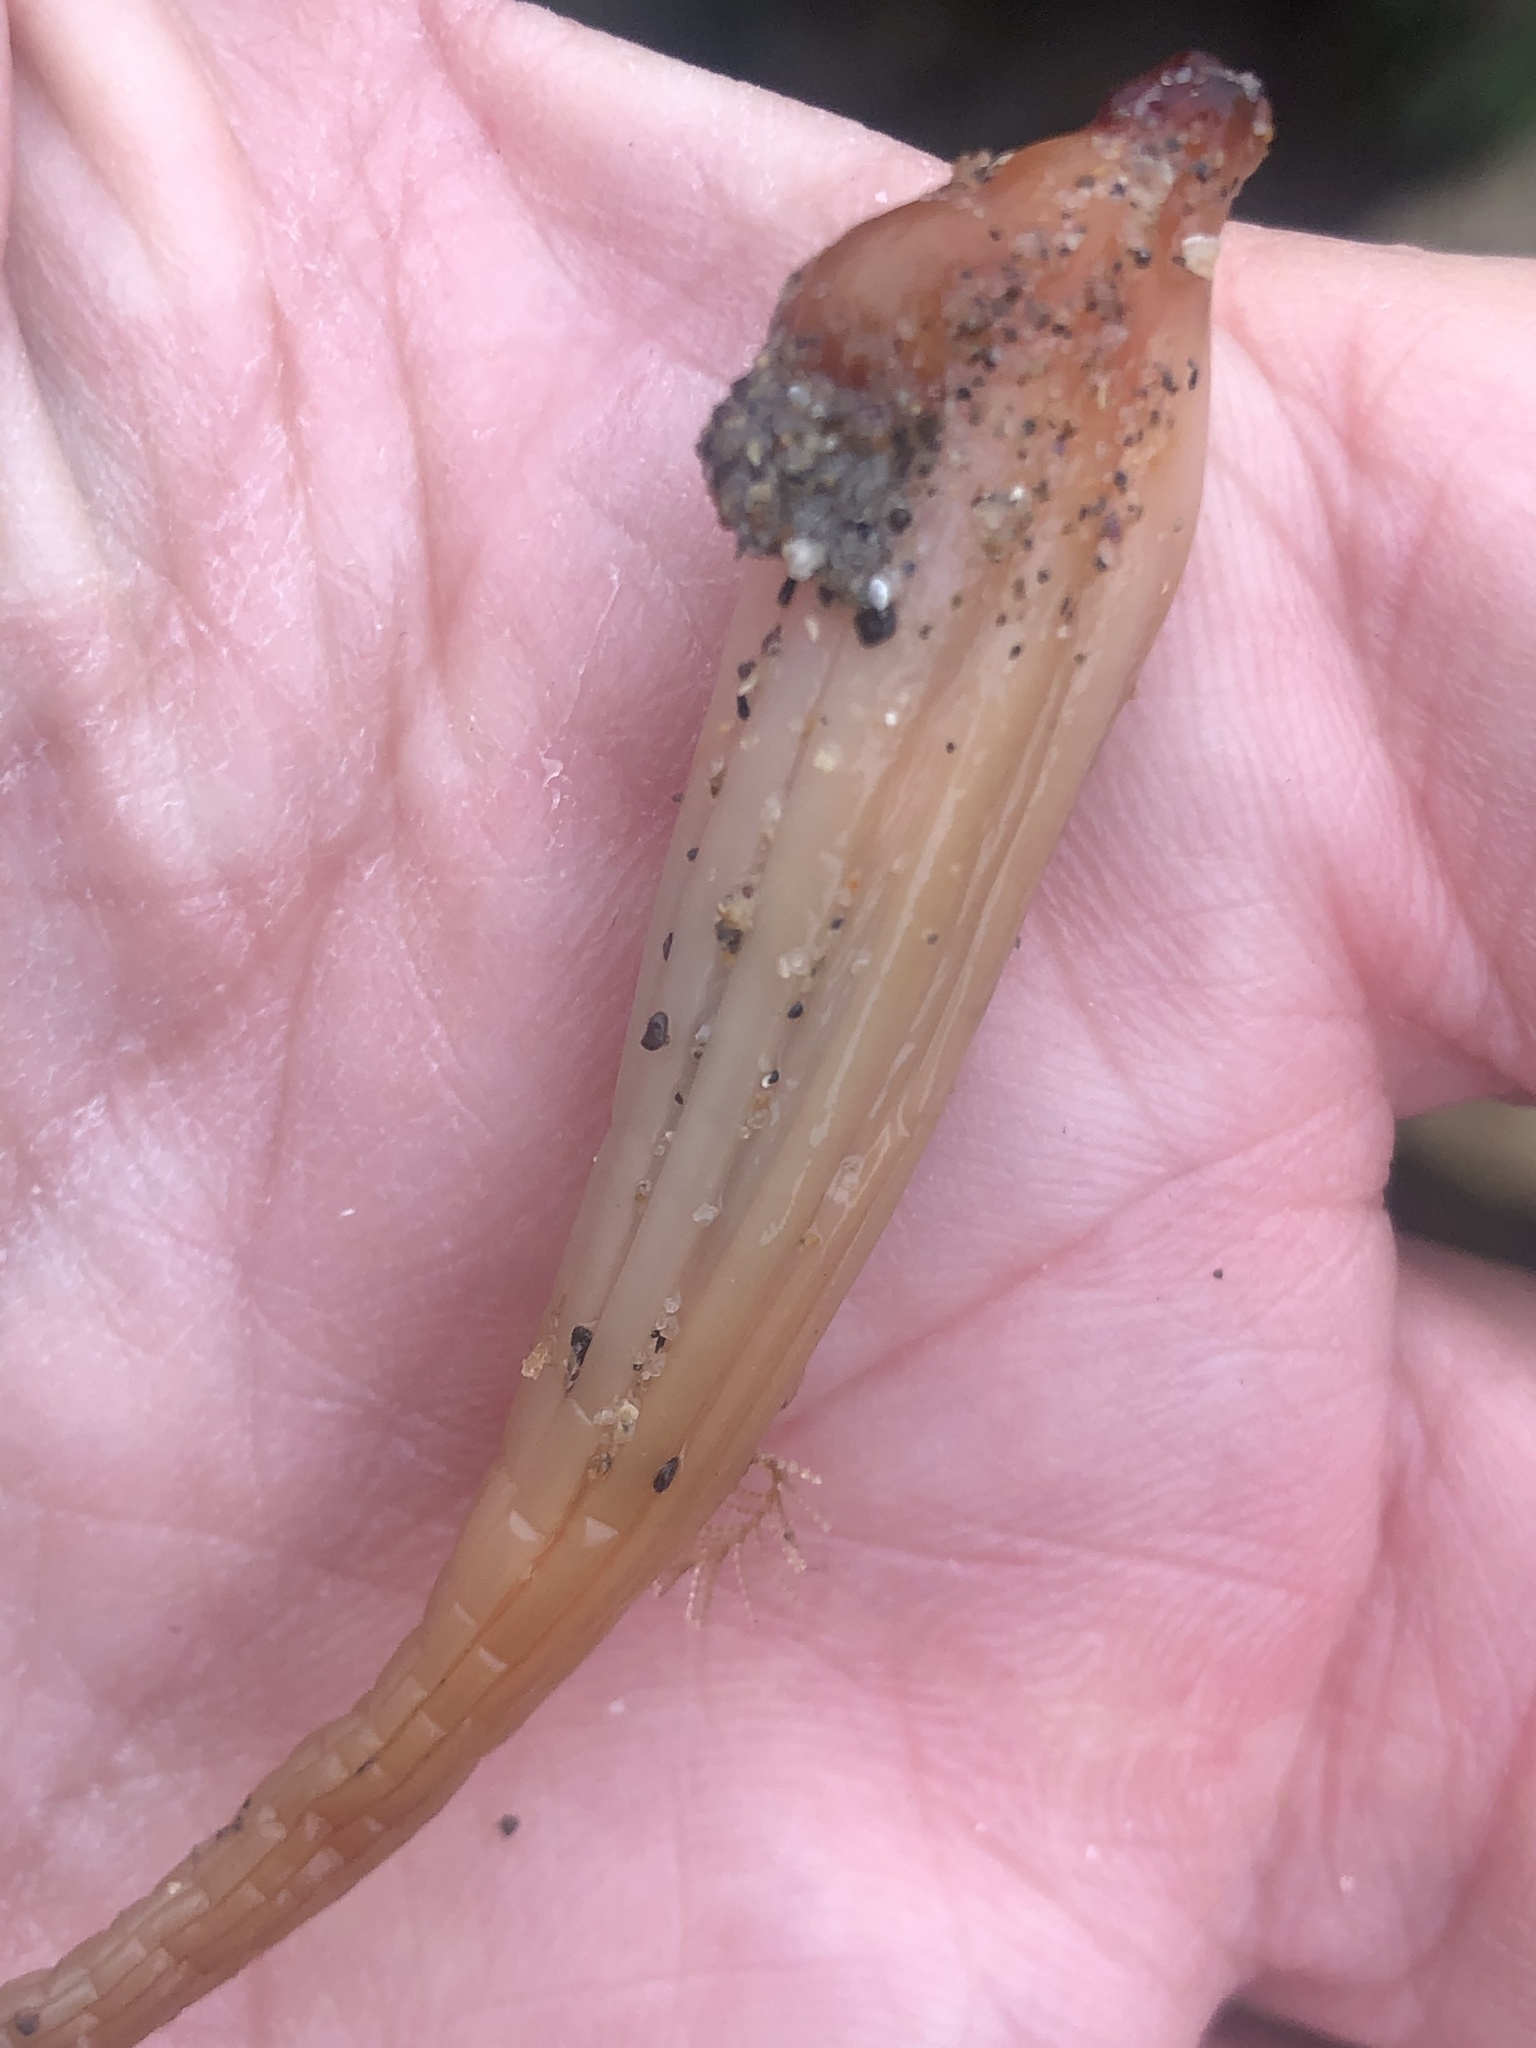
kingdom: Animalia
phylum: Chordata
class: Ascidiacea
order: Stolidobranchia
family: Styelidae
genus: Styela
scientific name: Styela montereyensis
